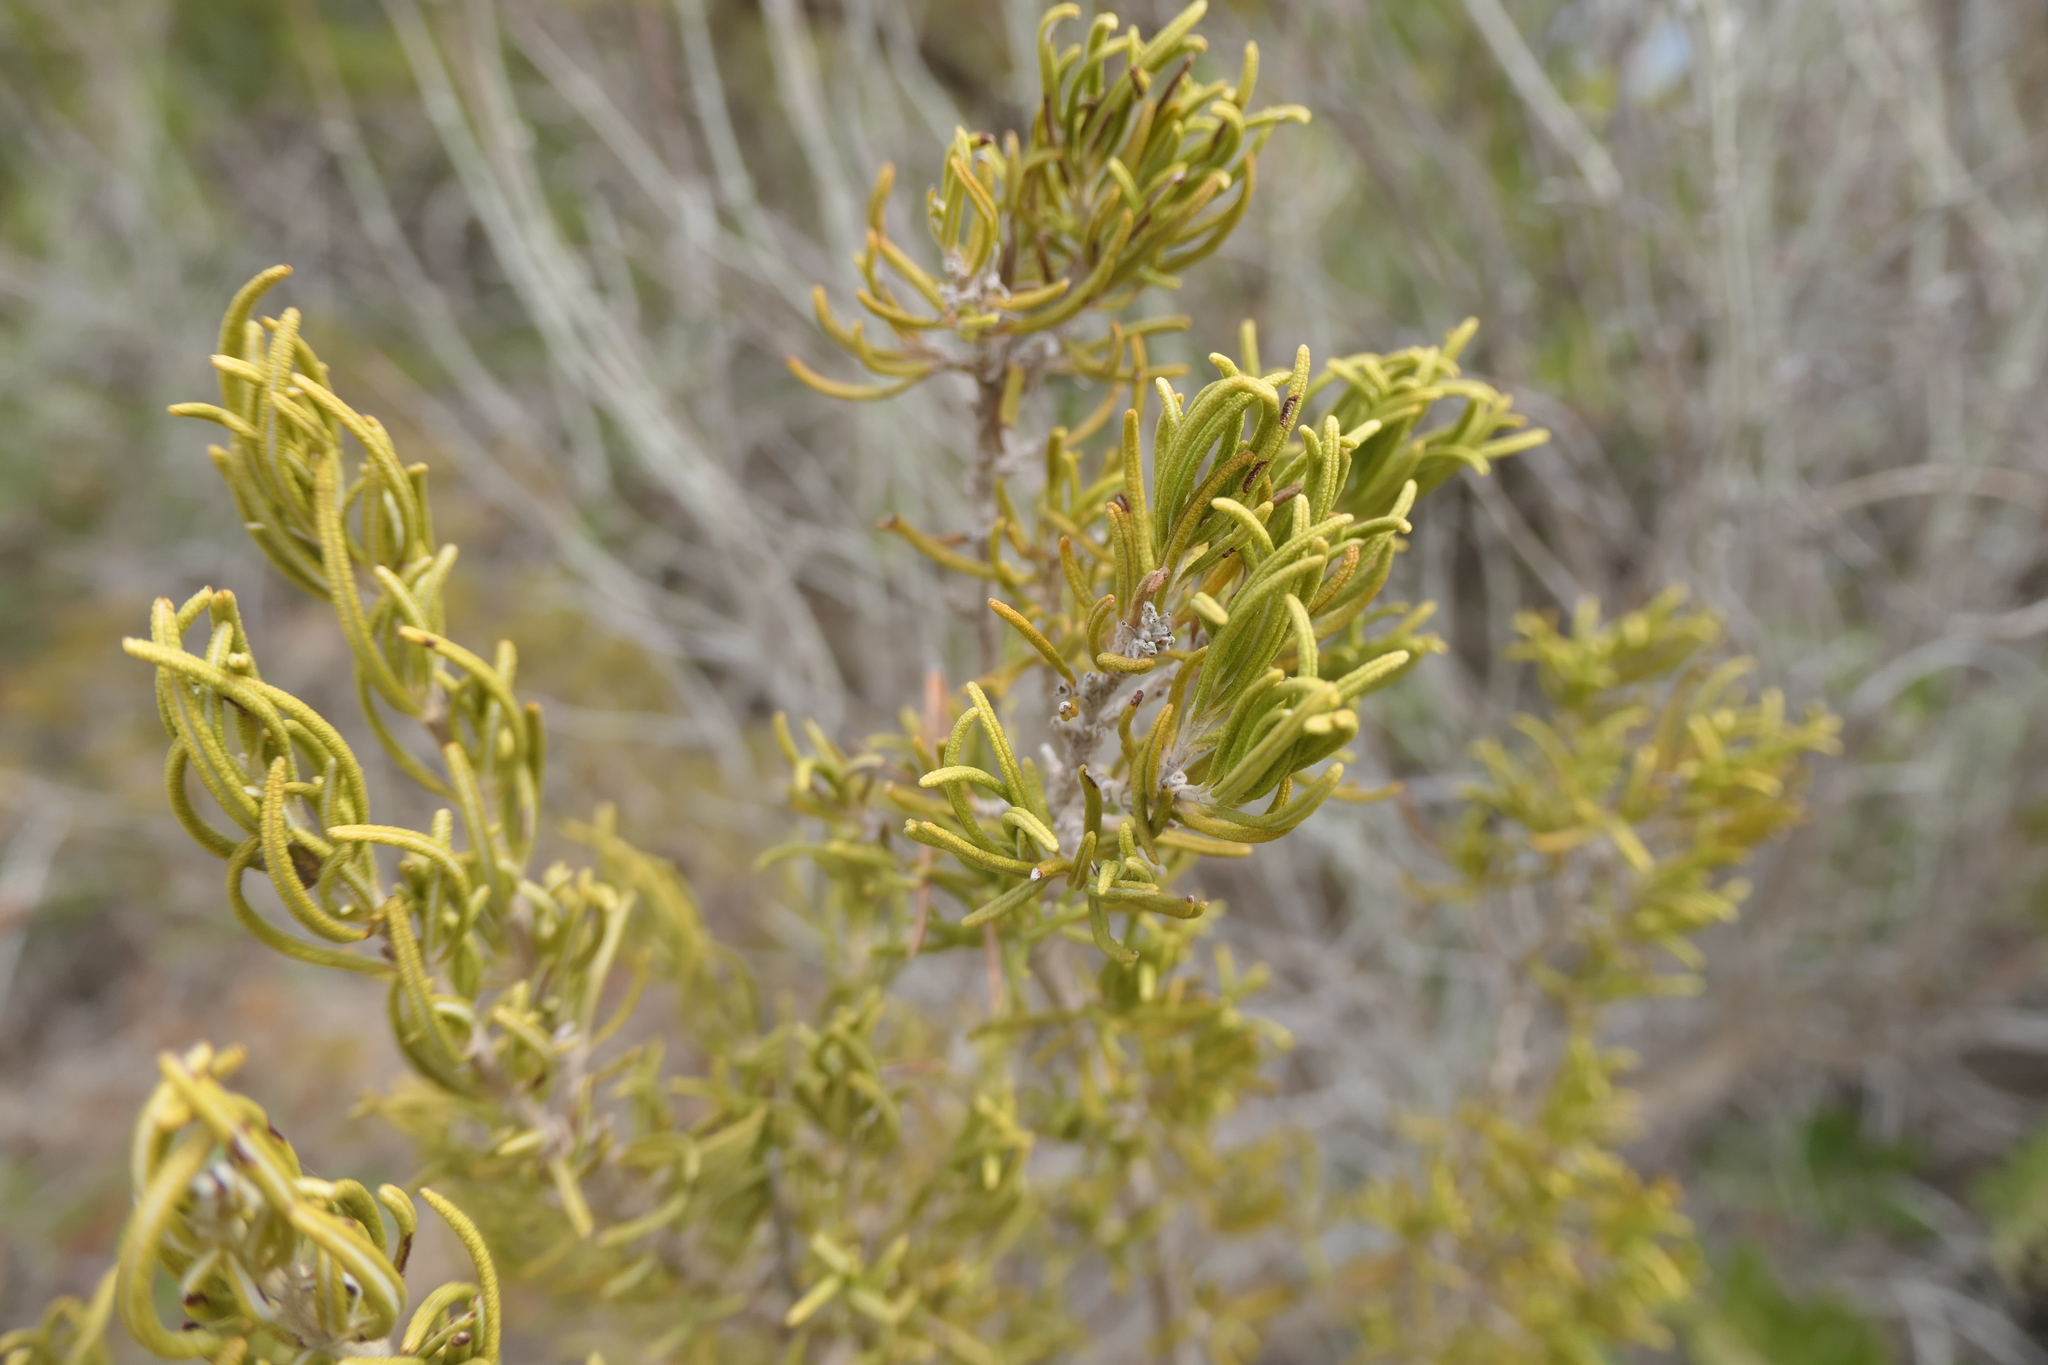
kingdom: Plantae
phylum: Tracheophyta
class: Magnoliopsida
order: Lamiales
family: Lamiaceae
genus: Salvia
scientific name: Salvia rosmarinus
